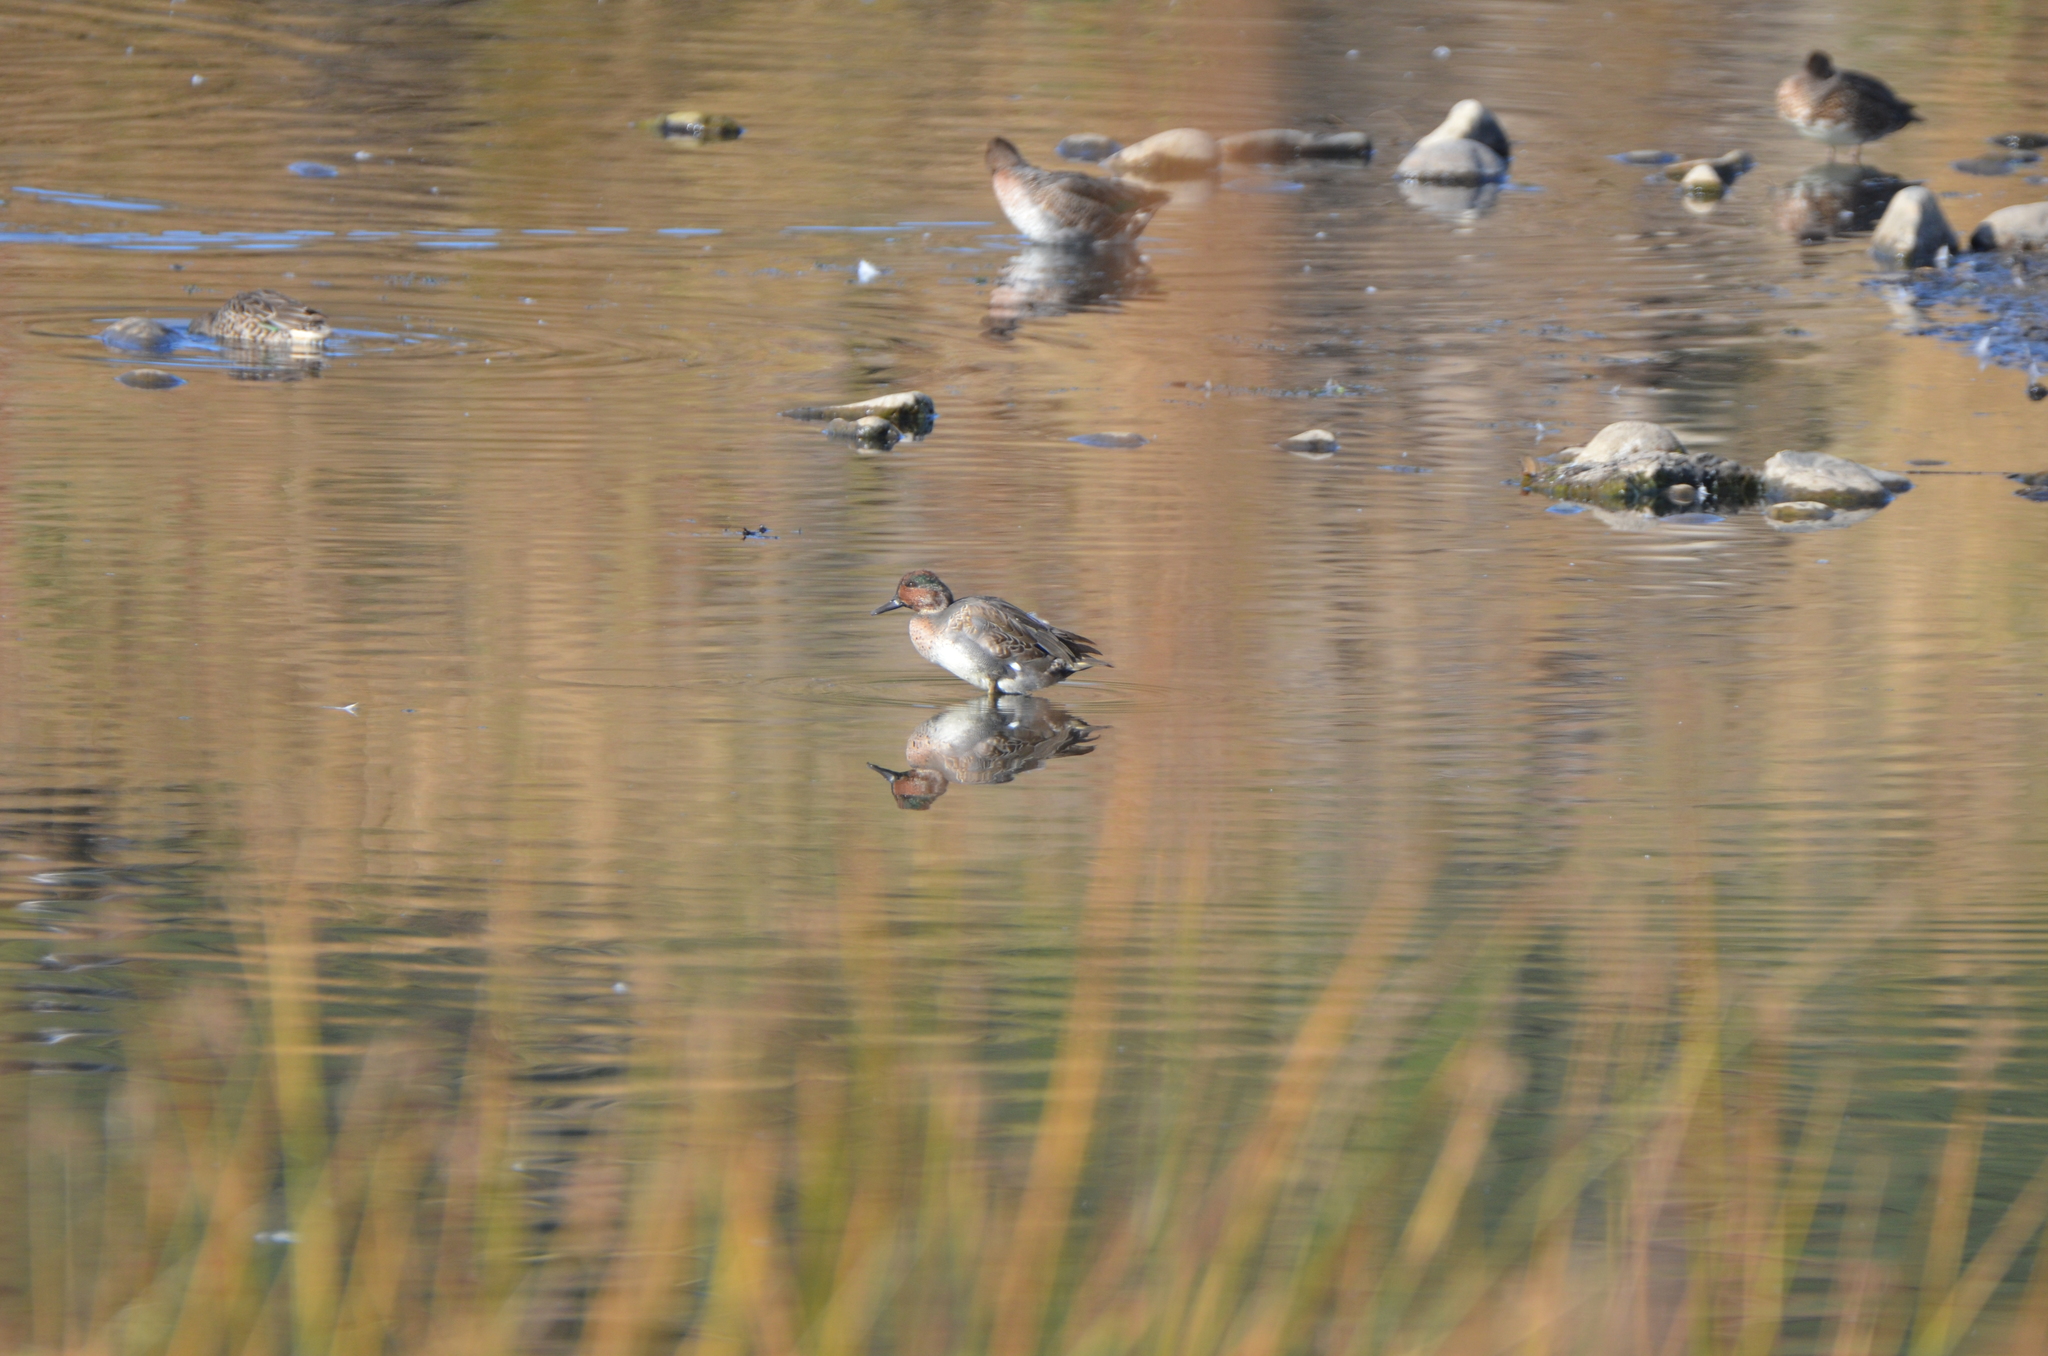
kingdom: Animalia
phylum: Chordata
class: Aves
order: Anseriformes
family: Anatidae
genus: Anas
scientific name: Anas crecca
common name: Eurasian teal
